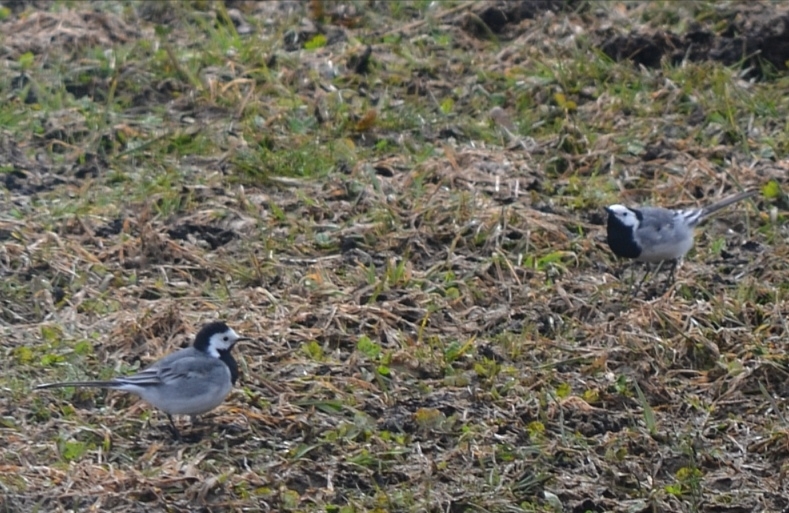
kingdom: Animalia
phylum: Chordata
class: Aves
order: Passeriformes
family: Motacillidae
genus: Motacilla
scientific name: Motacilla alba
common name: White wagtail
